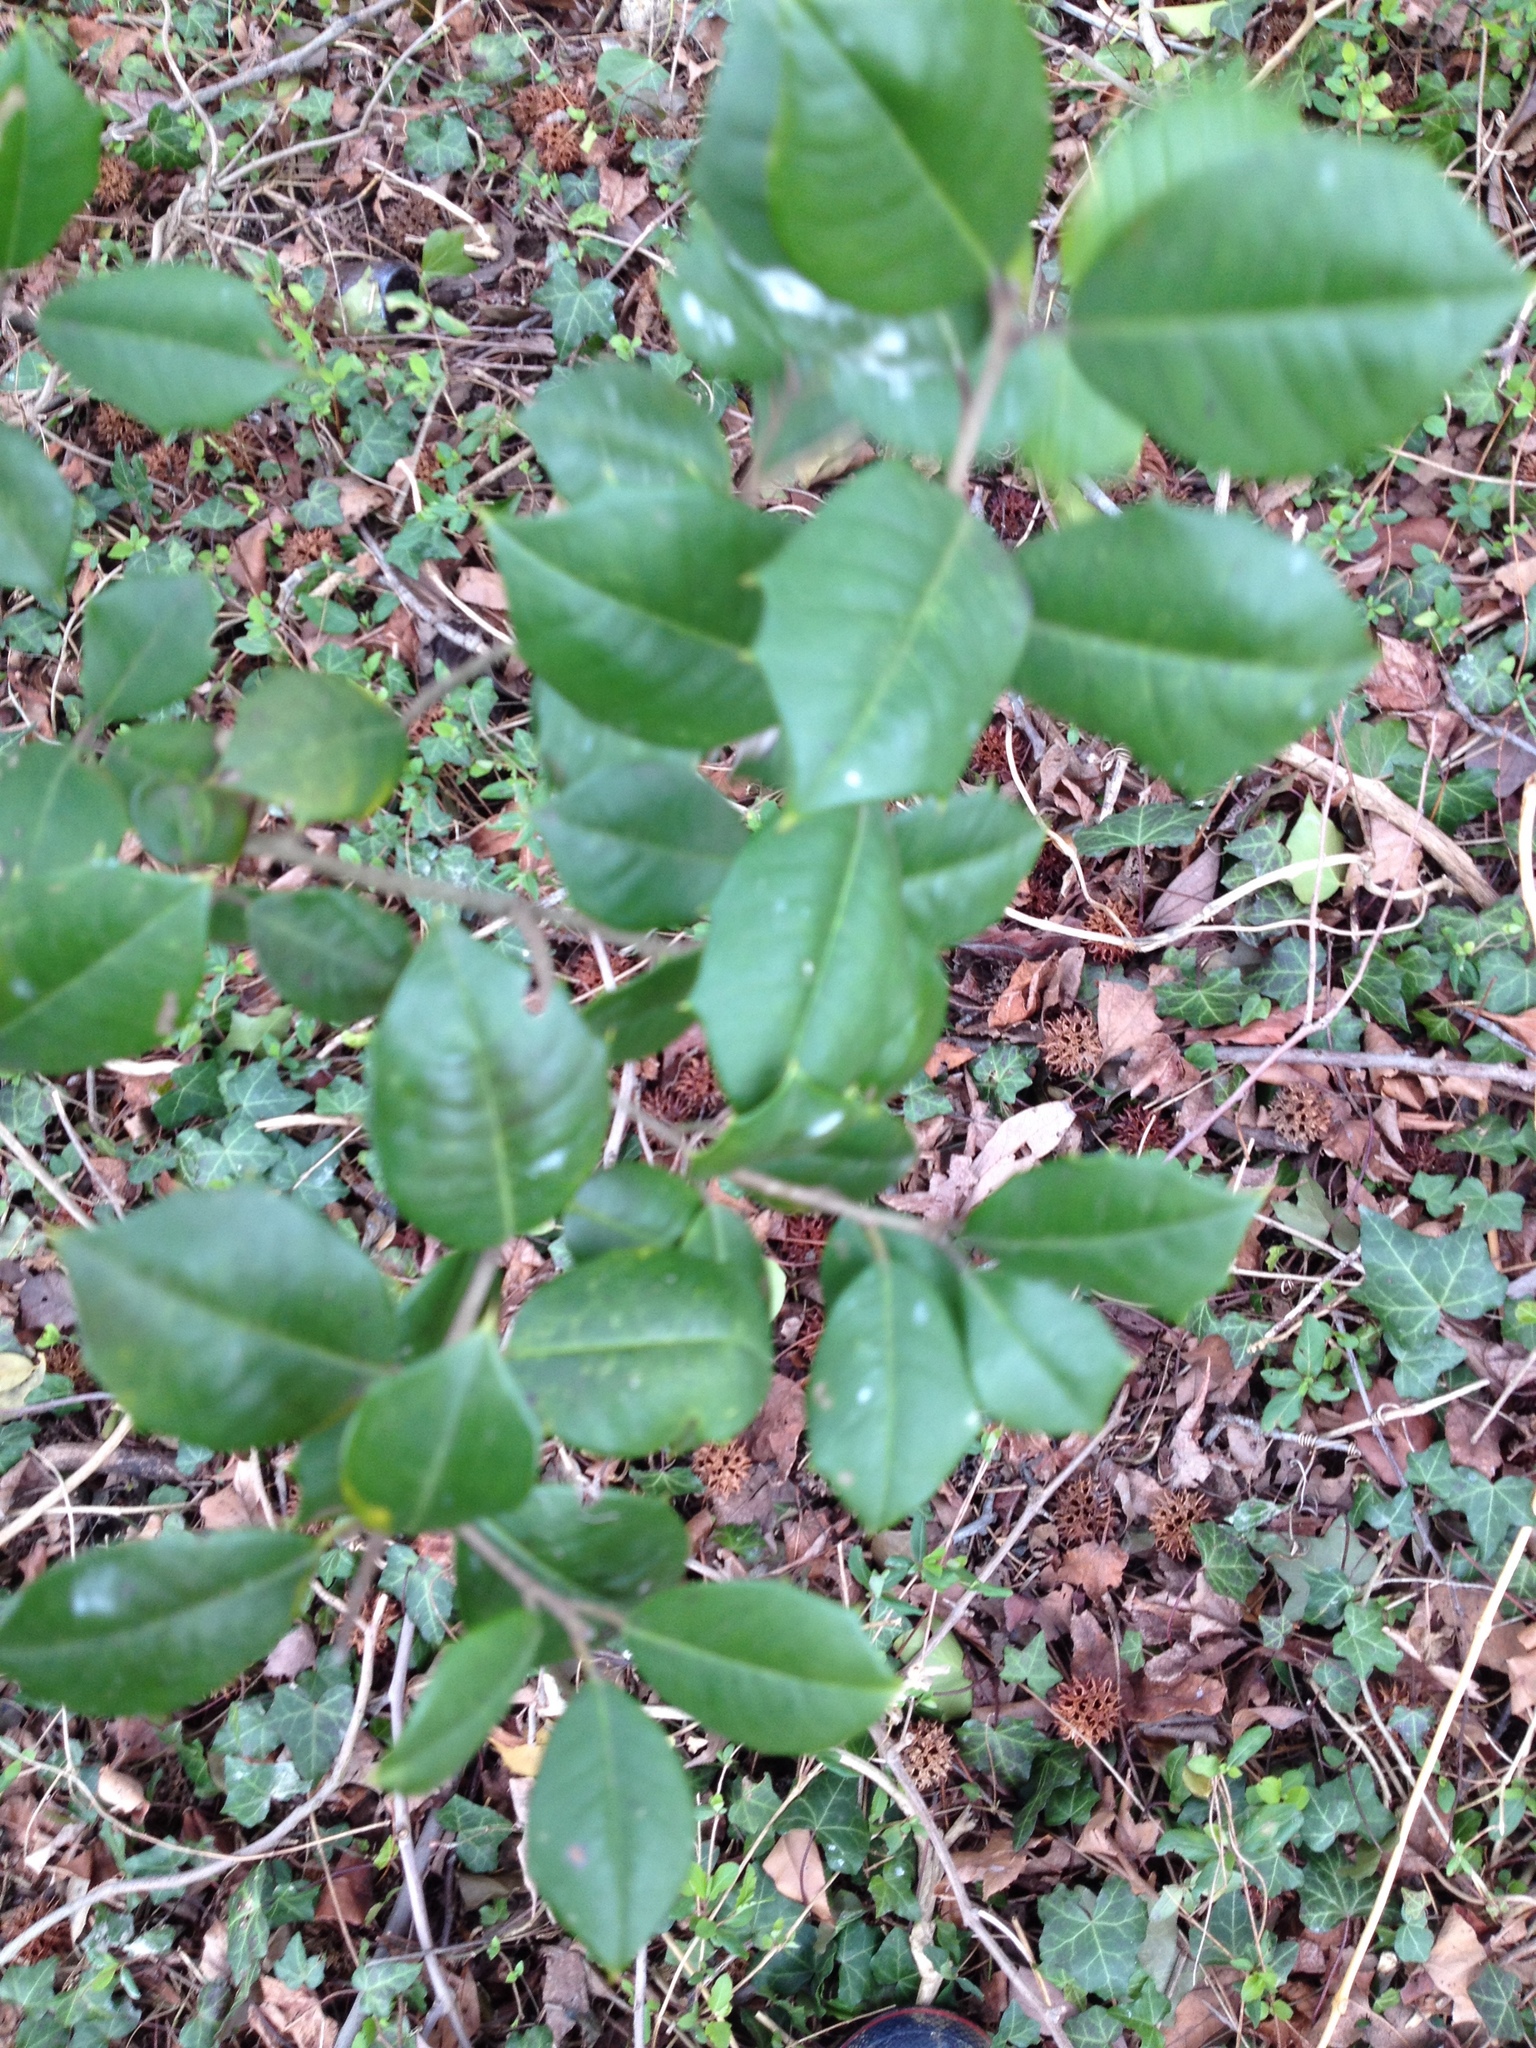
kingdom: Plantae
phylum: Tracheophyta
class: Magnoliopsida
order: Aquifoliales
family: Aquifoliaceae
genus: Ilex
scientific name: Ilex opaca
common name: American holly
